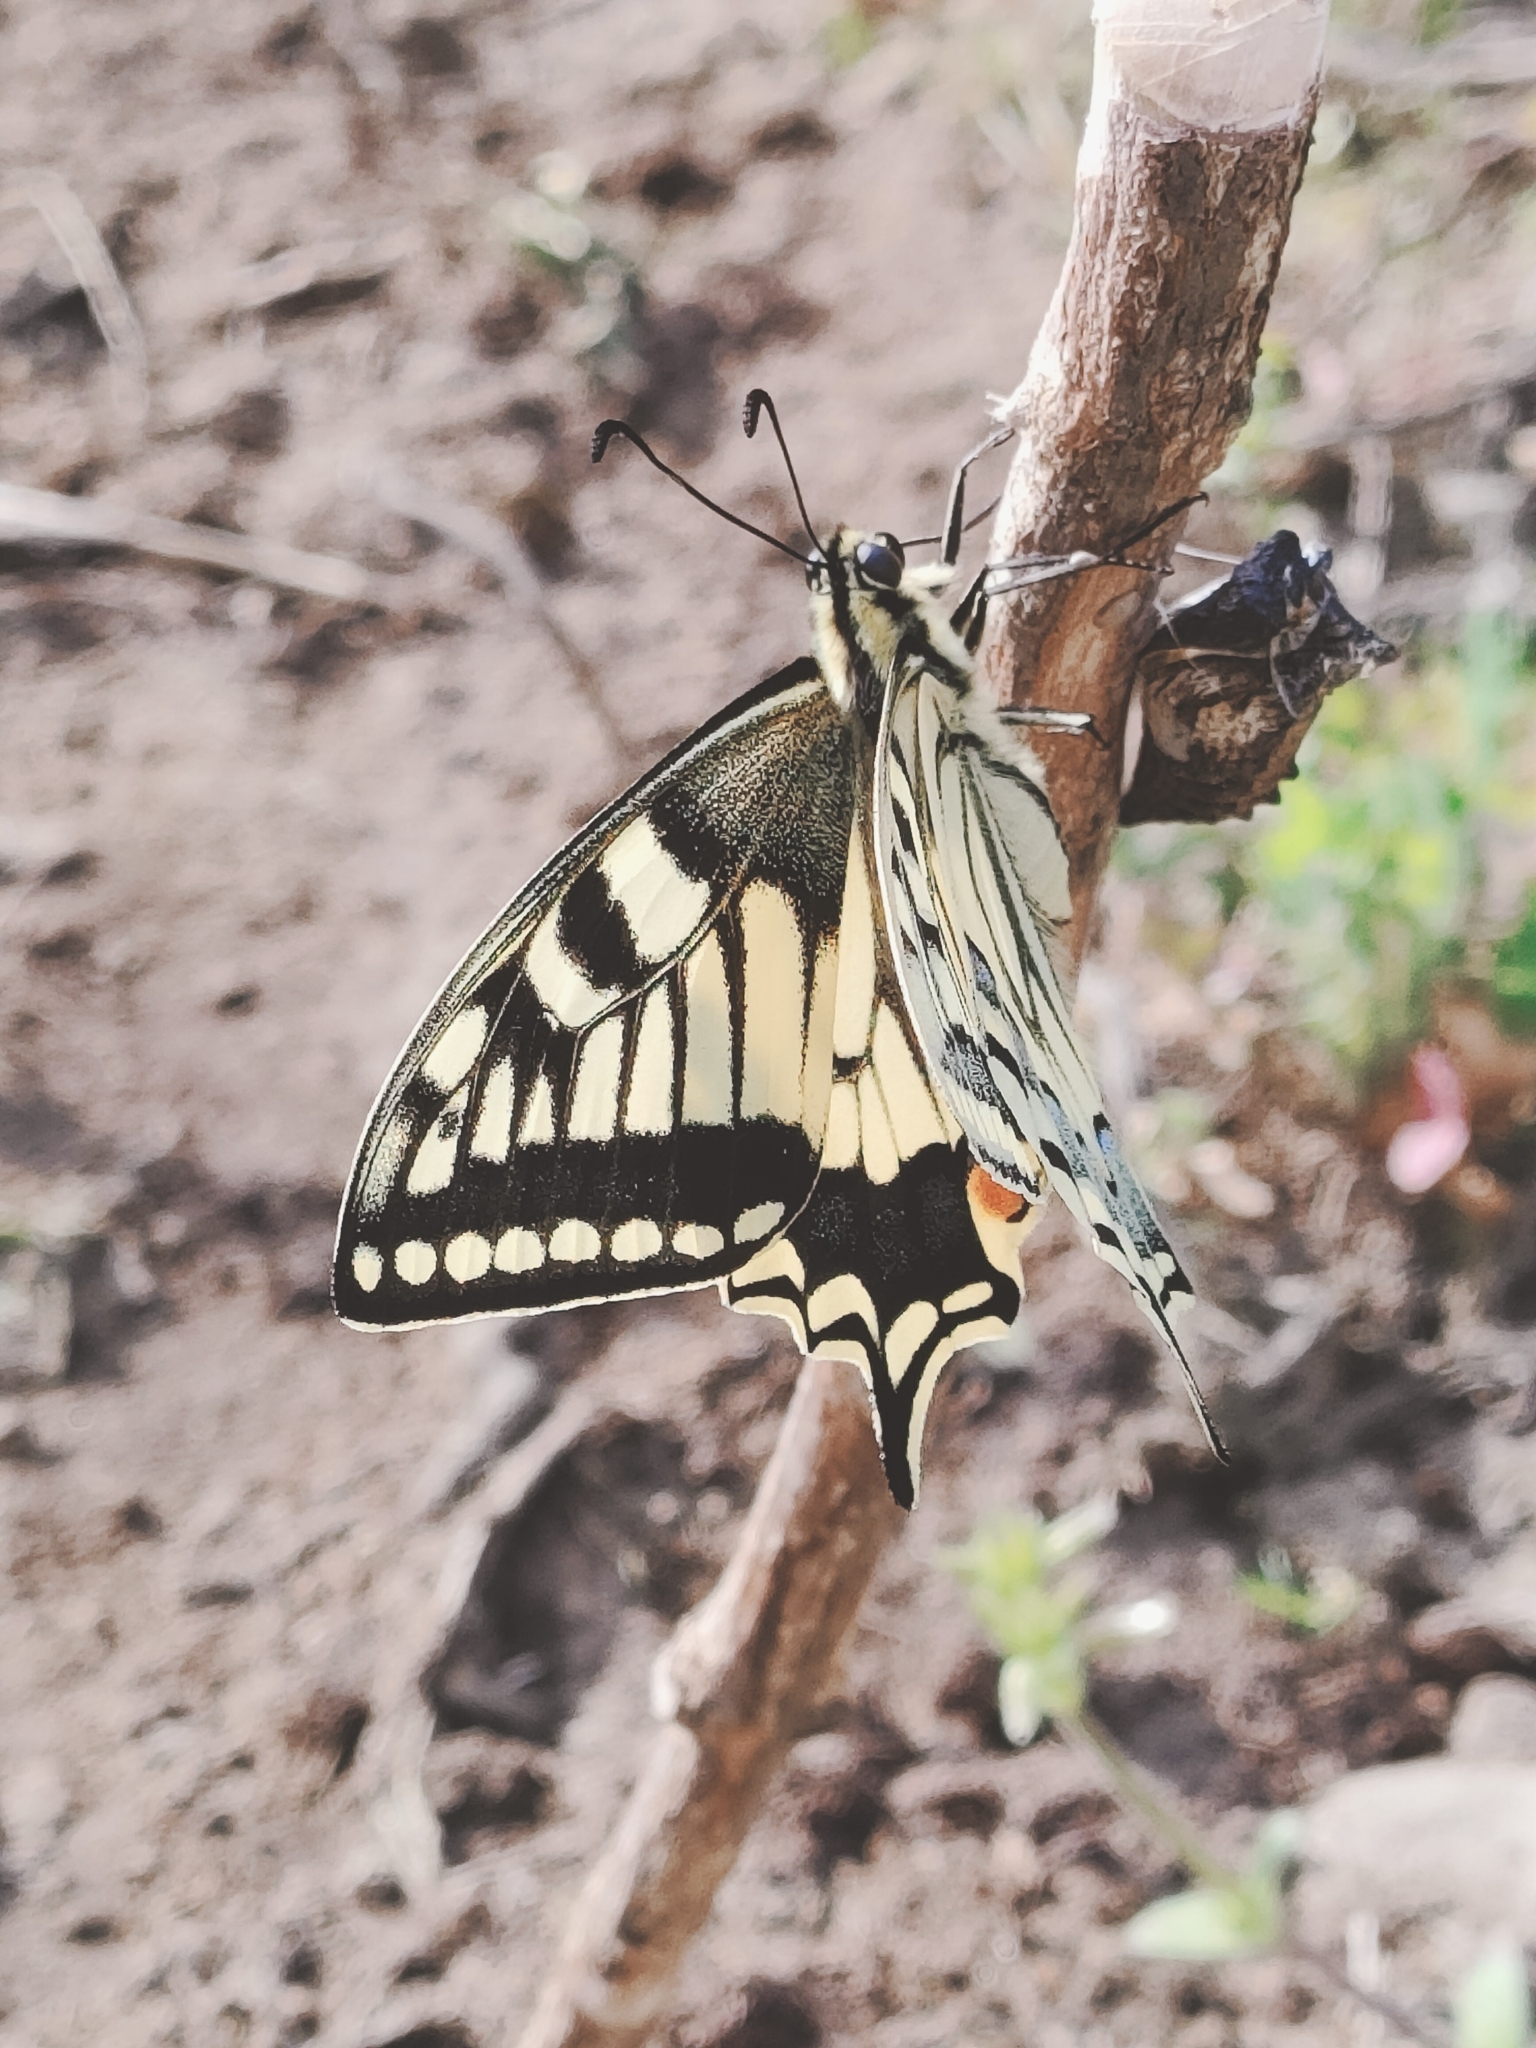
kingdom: Animalia
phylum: Arthropoda
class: Insecta
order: Lepidoptera
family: Papilionidae
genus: Papilio
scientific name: Papilio machaon
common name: Swallowtail
